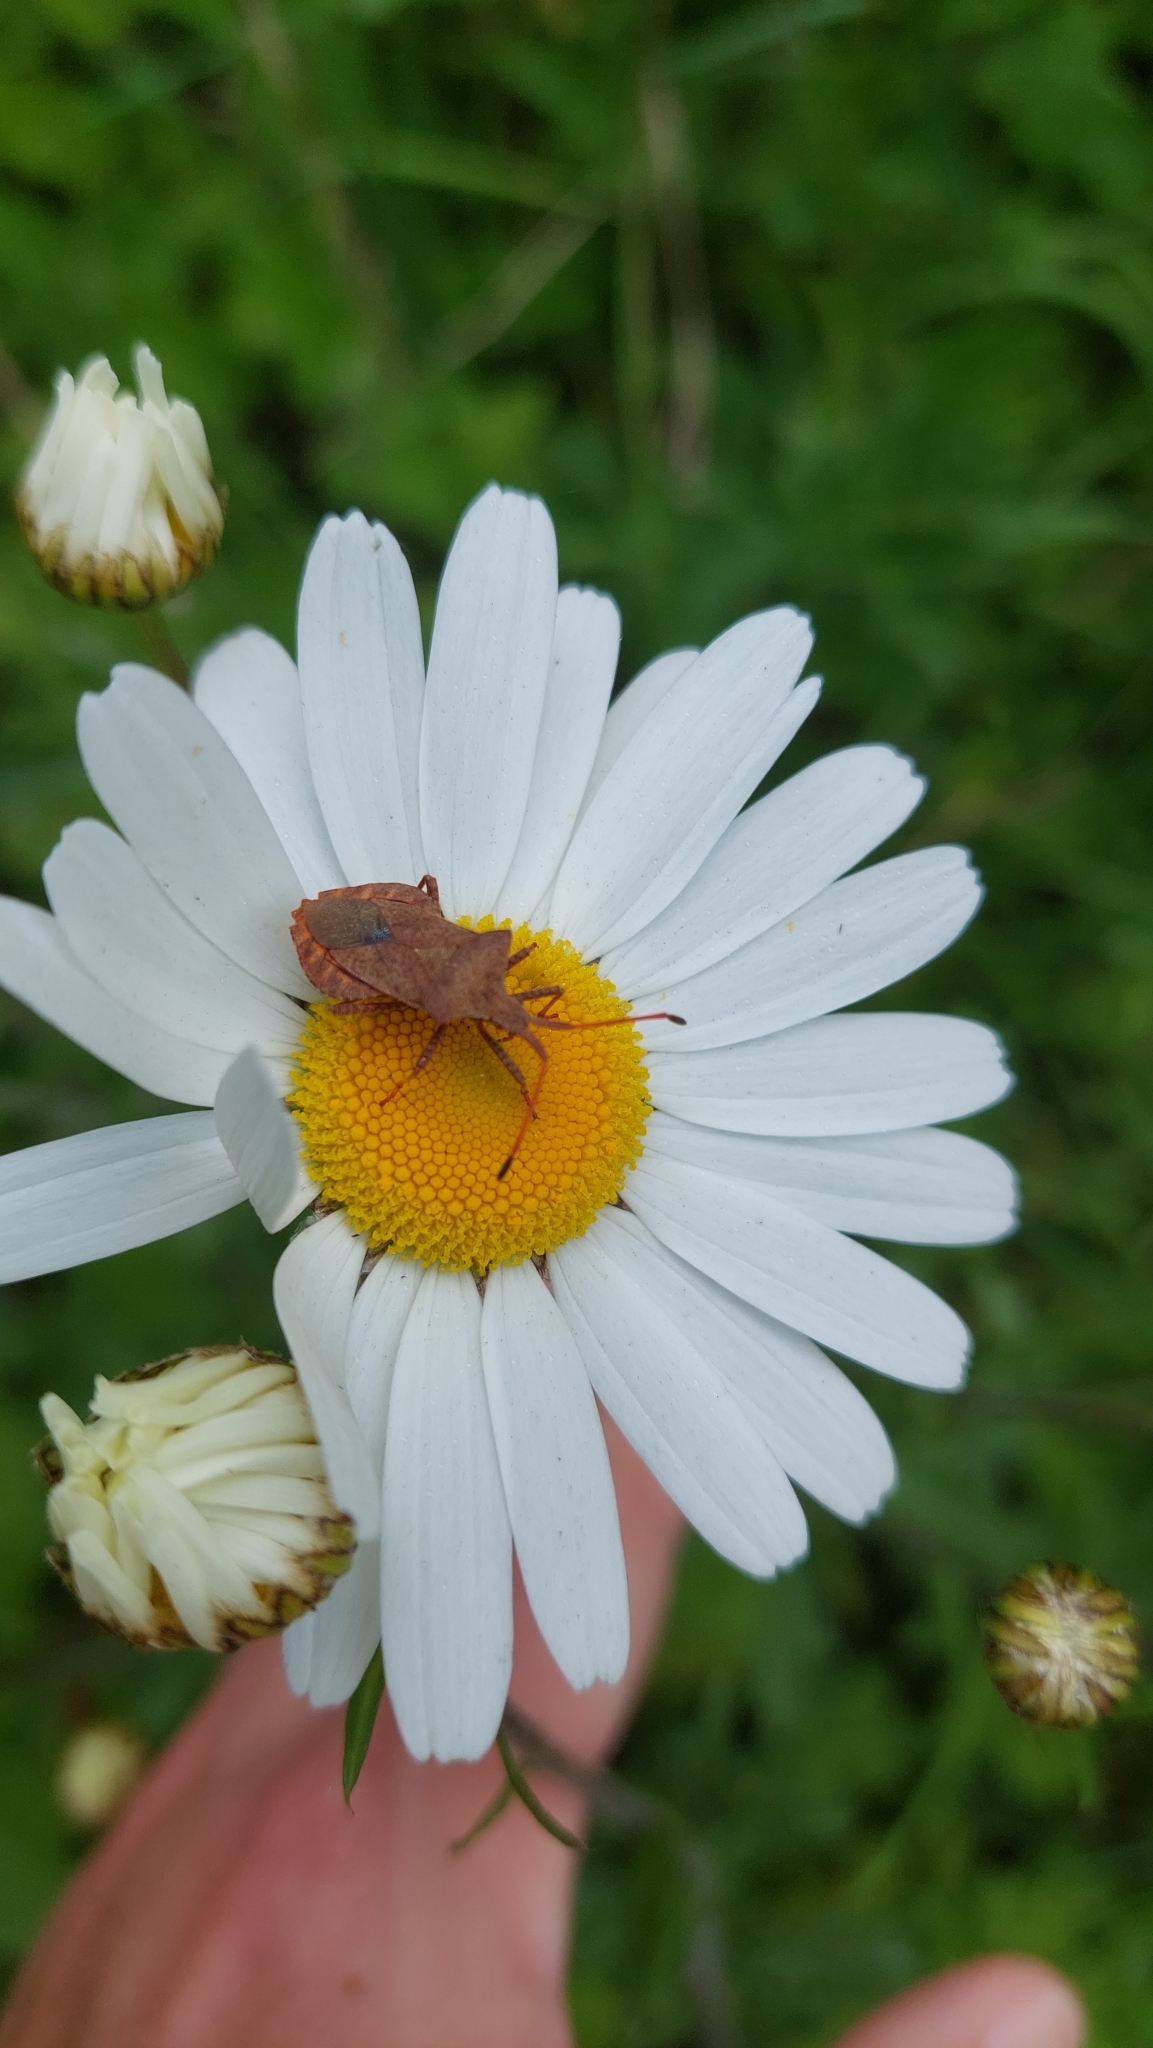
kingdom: Animalia
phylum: Arthropoda
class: Insecta
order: Hemiptera
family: Coreidae
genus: Coreus
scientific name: Coreus marginatus
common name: Dock bug
